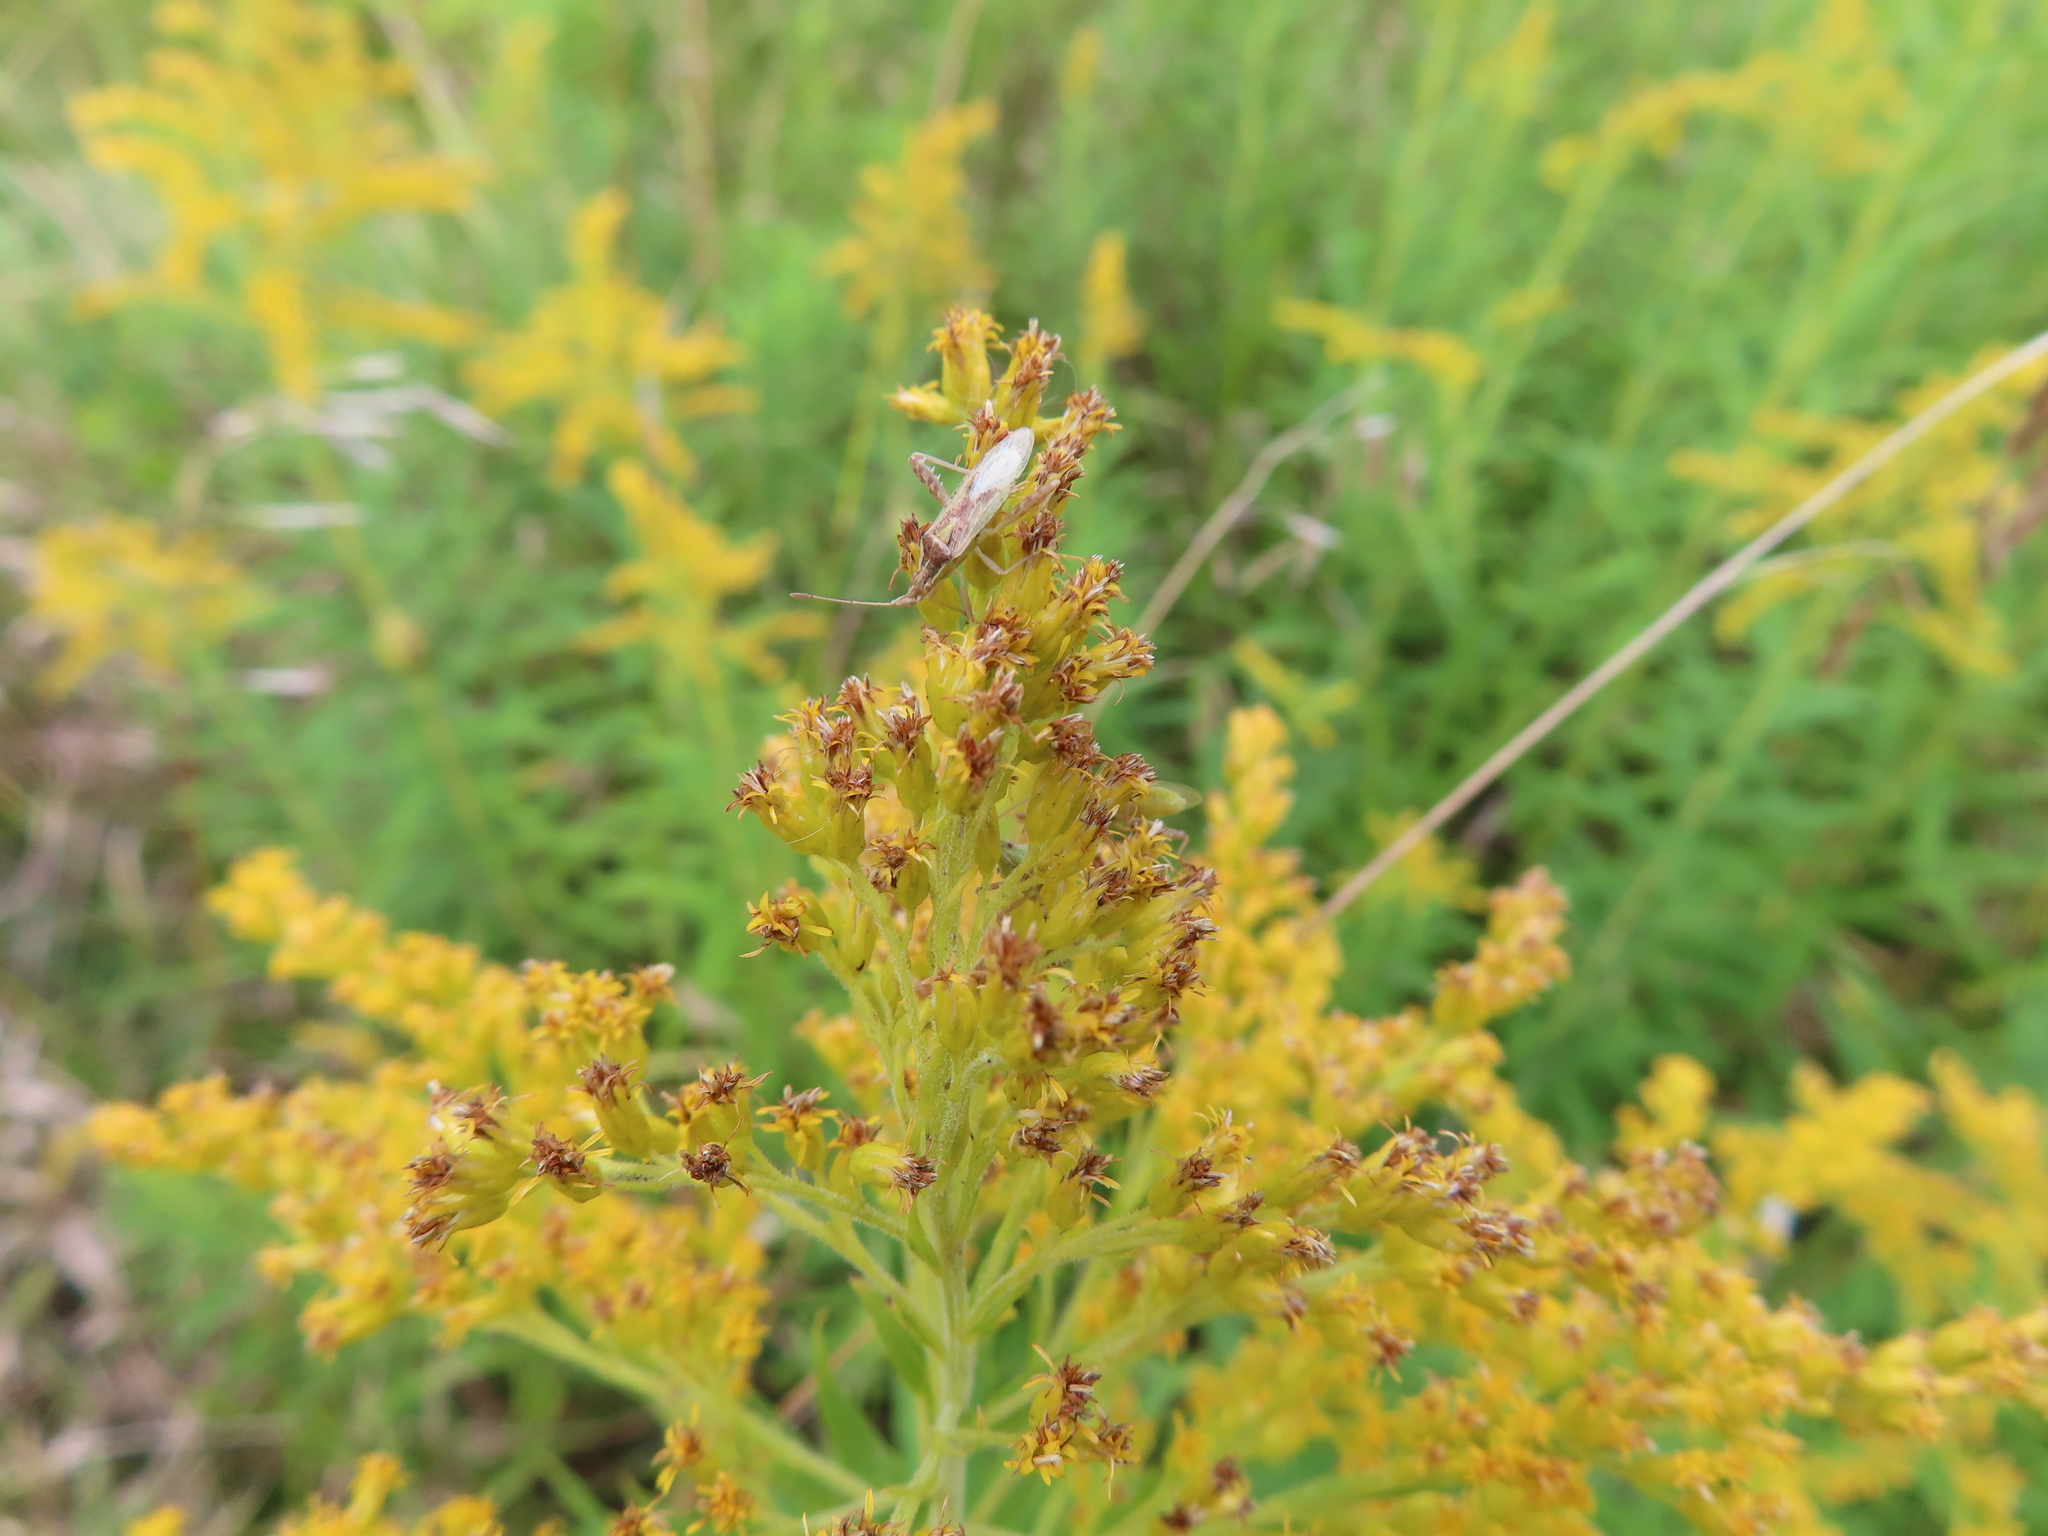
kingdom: Animalia
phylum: Arthropoda
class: Insecta
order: Hemiptera
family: Rhopalidae
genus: Harmostes
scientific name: Harmostes reflexulus
